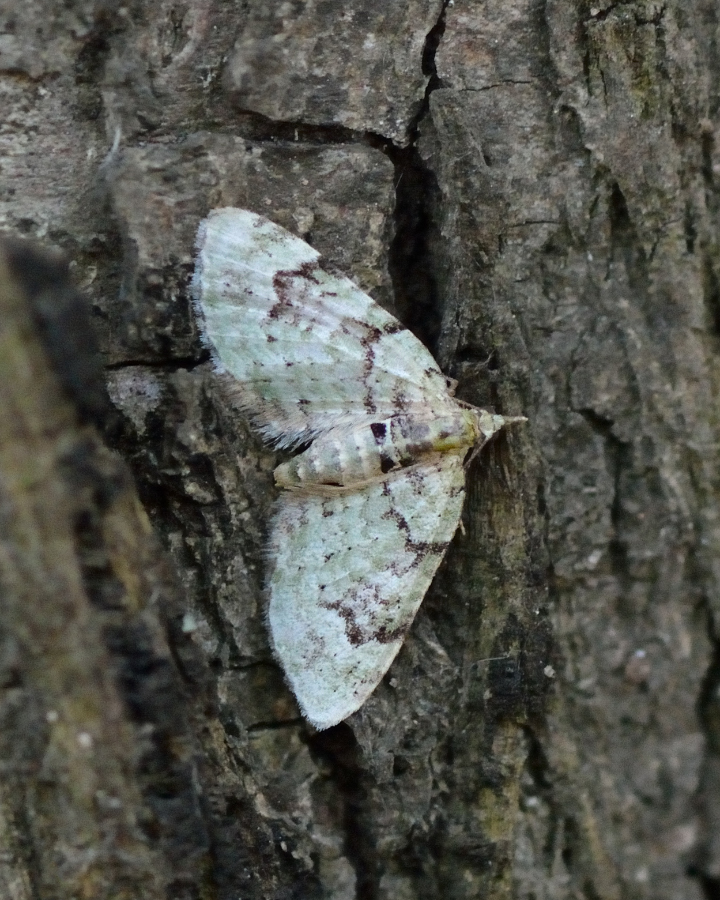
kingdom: Animalia
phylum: Arthropoda
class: Insecta
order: Lepidoptera
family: Geometridae
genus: Chloroclystis
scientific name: Chloroclystis v-ata
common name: V-pug
